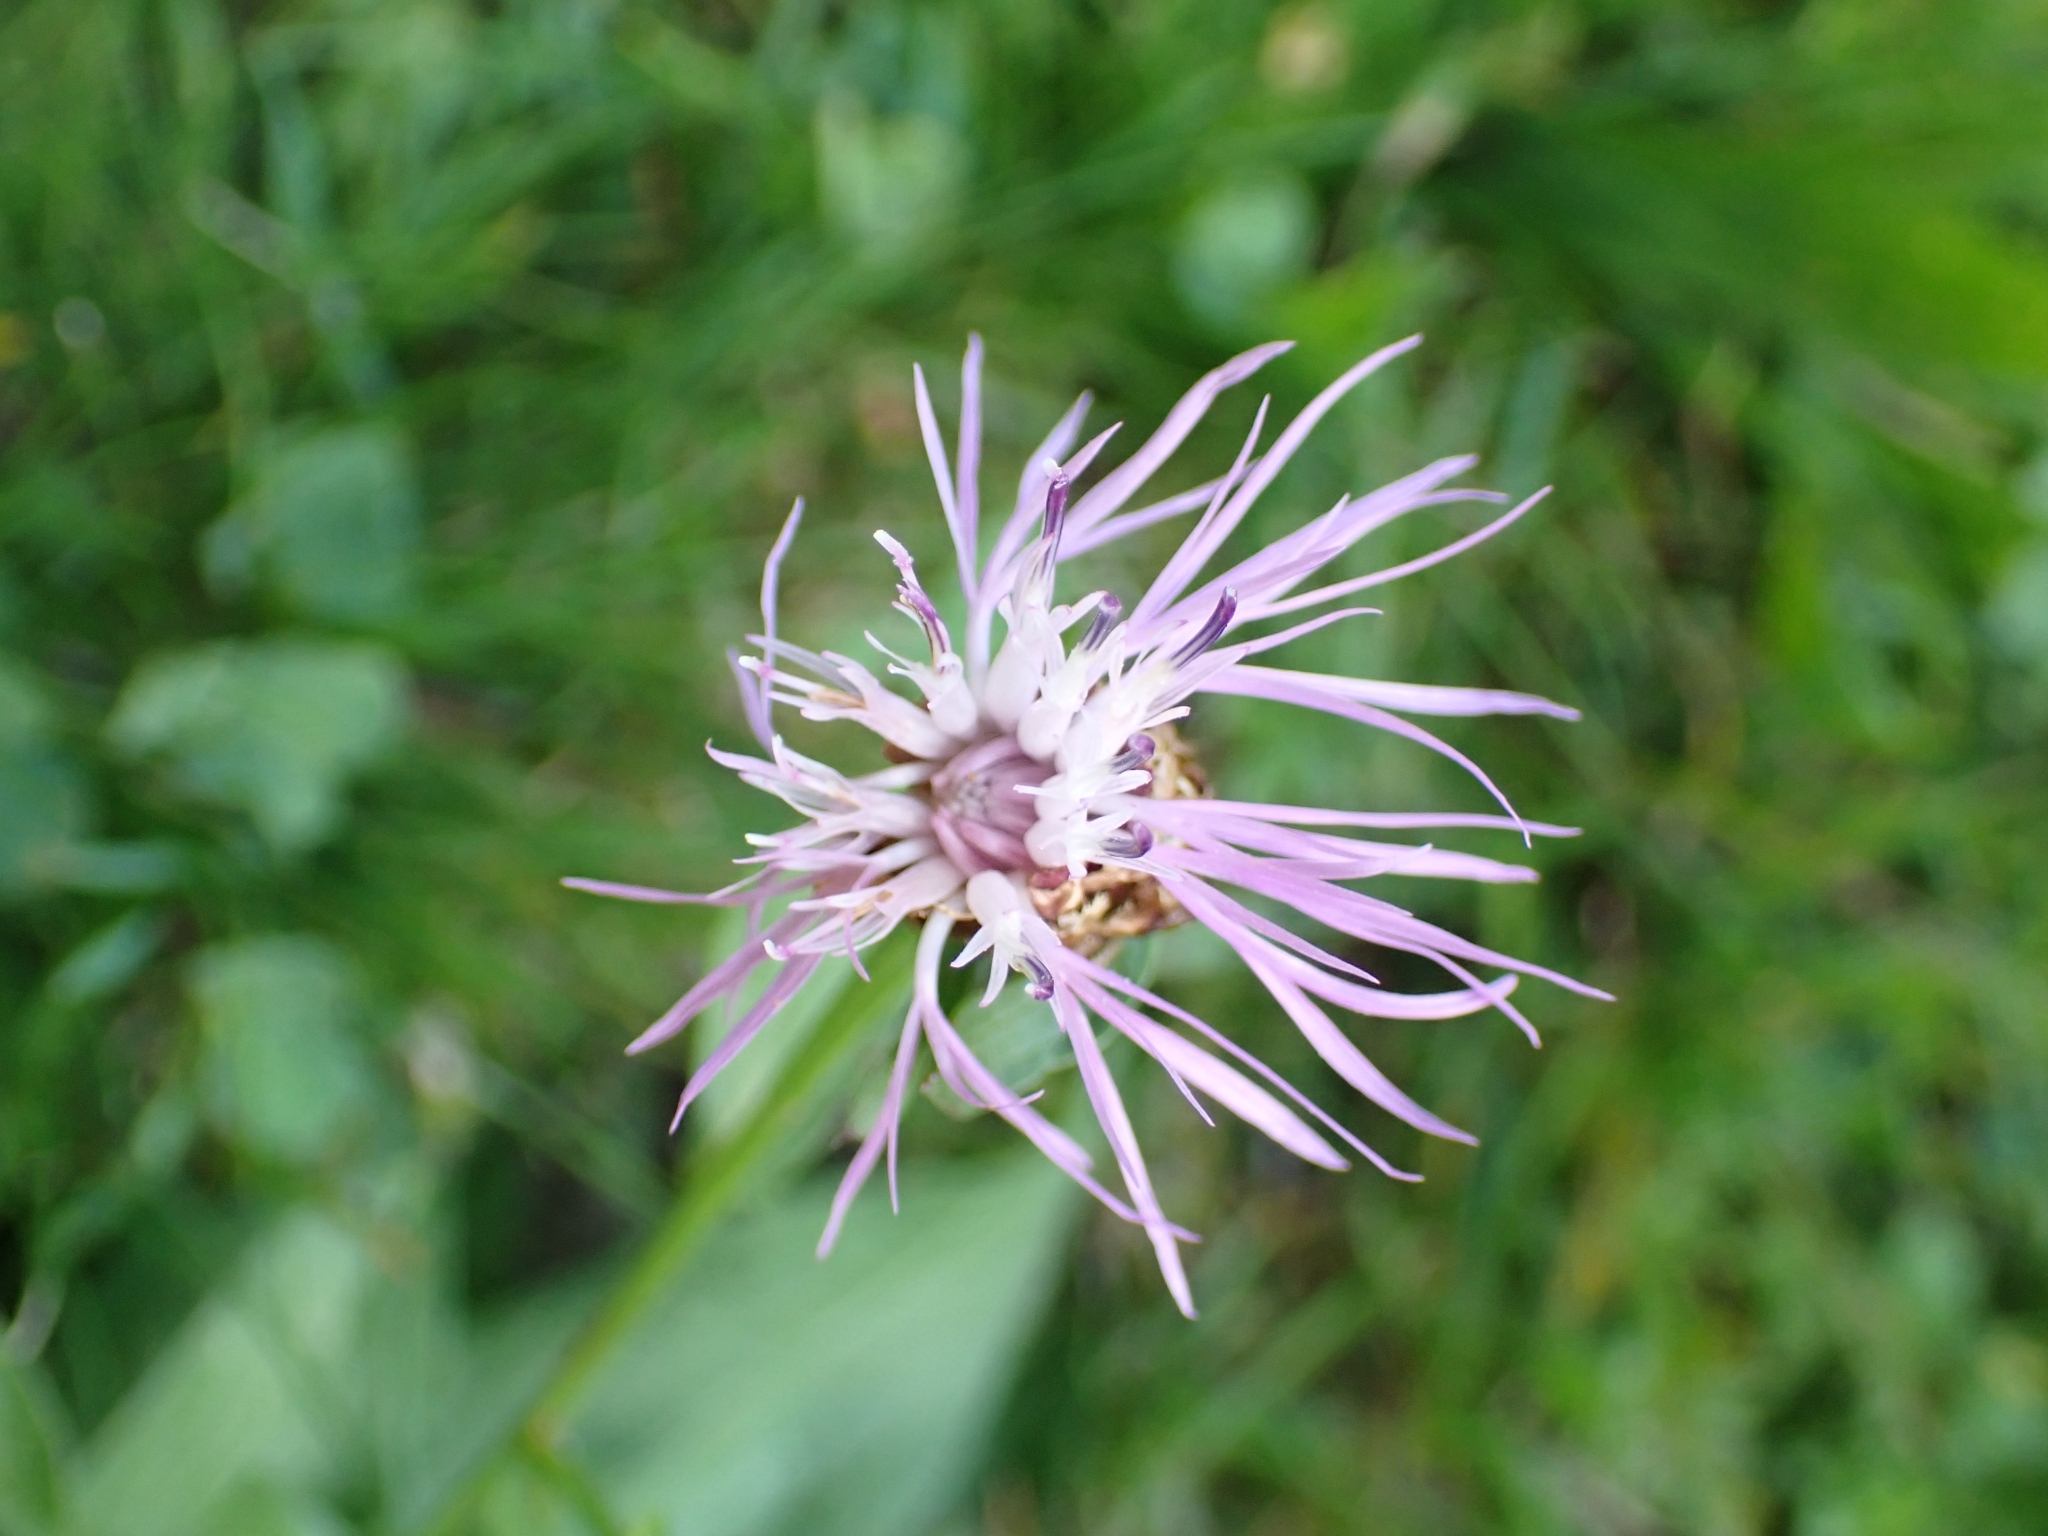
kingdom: Plantae
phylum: Tracheophyta
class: Magnoliopsida
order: Asterales
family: Asteraceae
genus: Centaurea
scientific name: Centaurea jacea
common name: Brown knapweed
